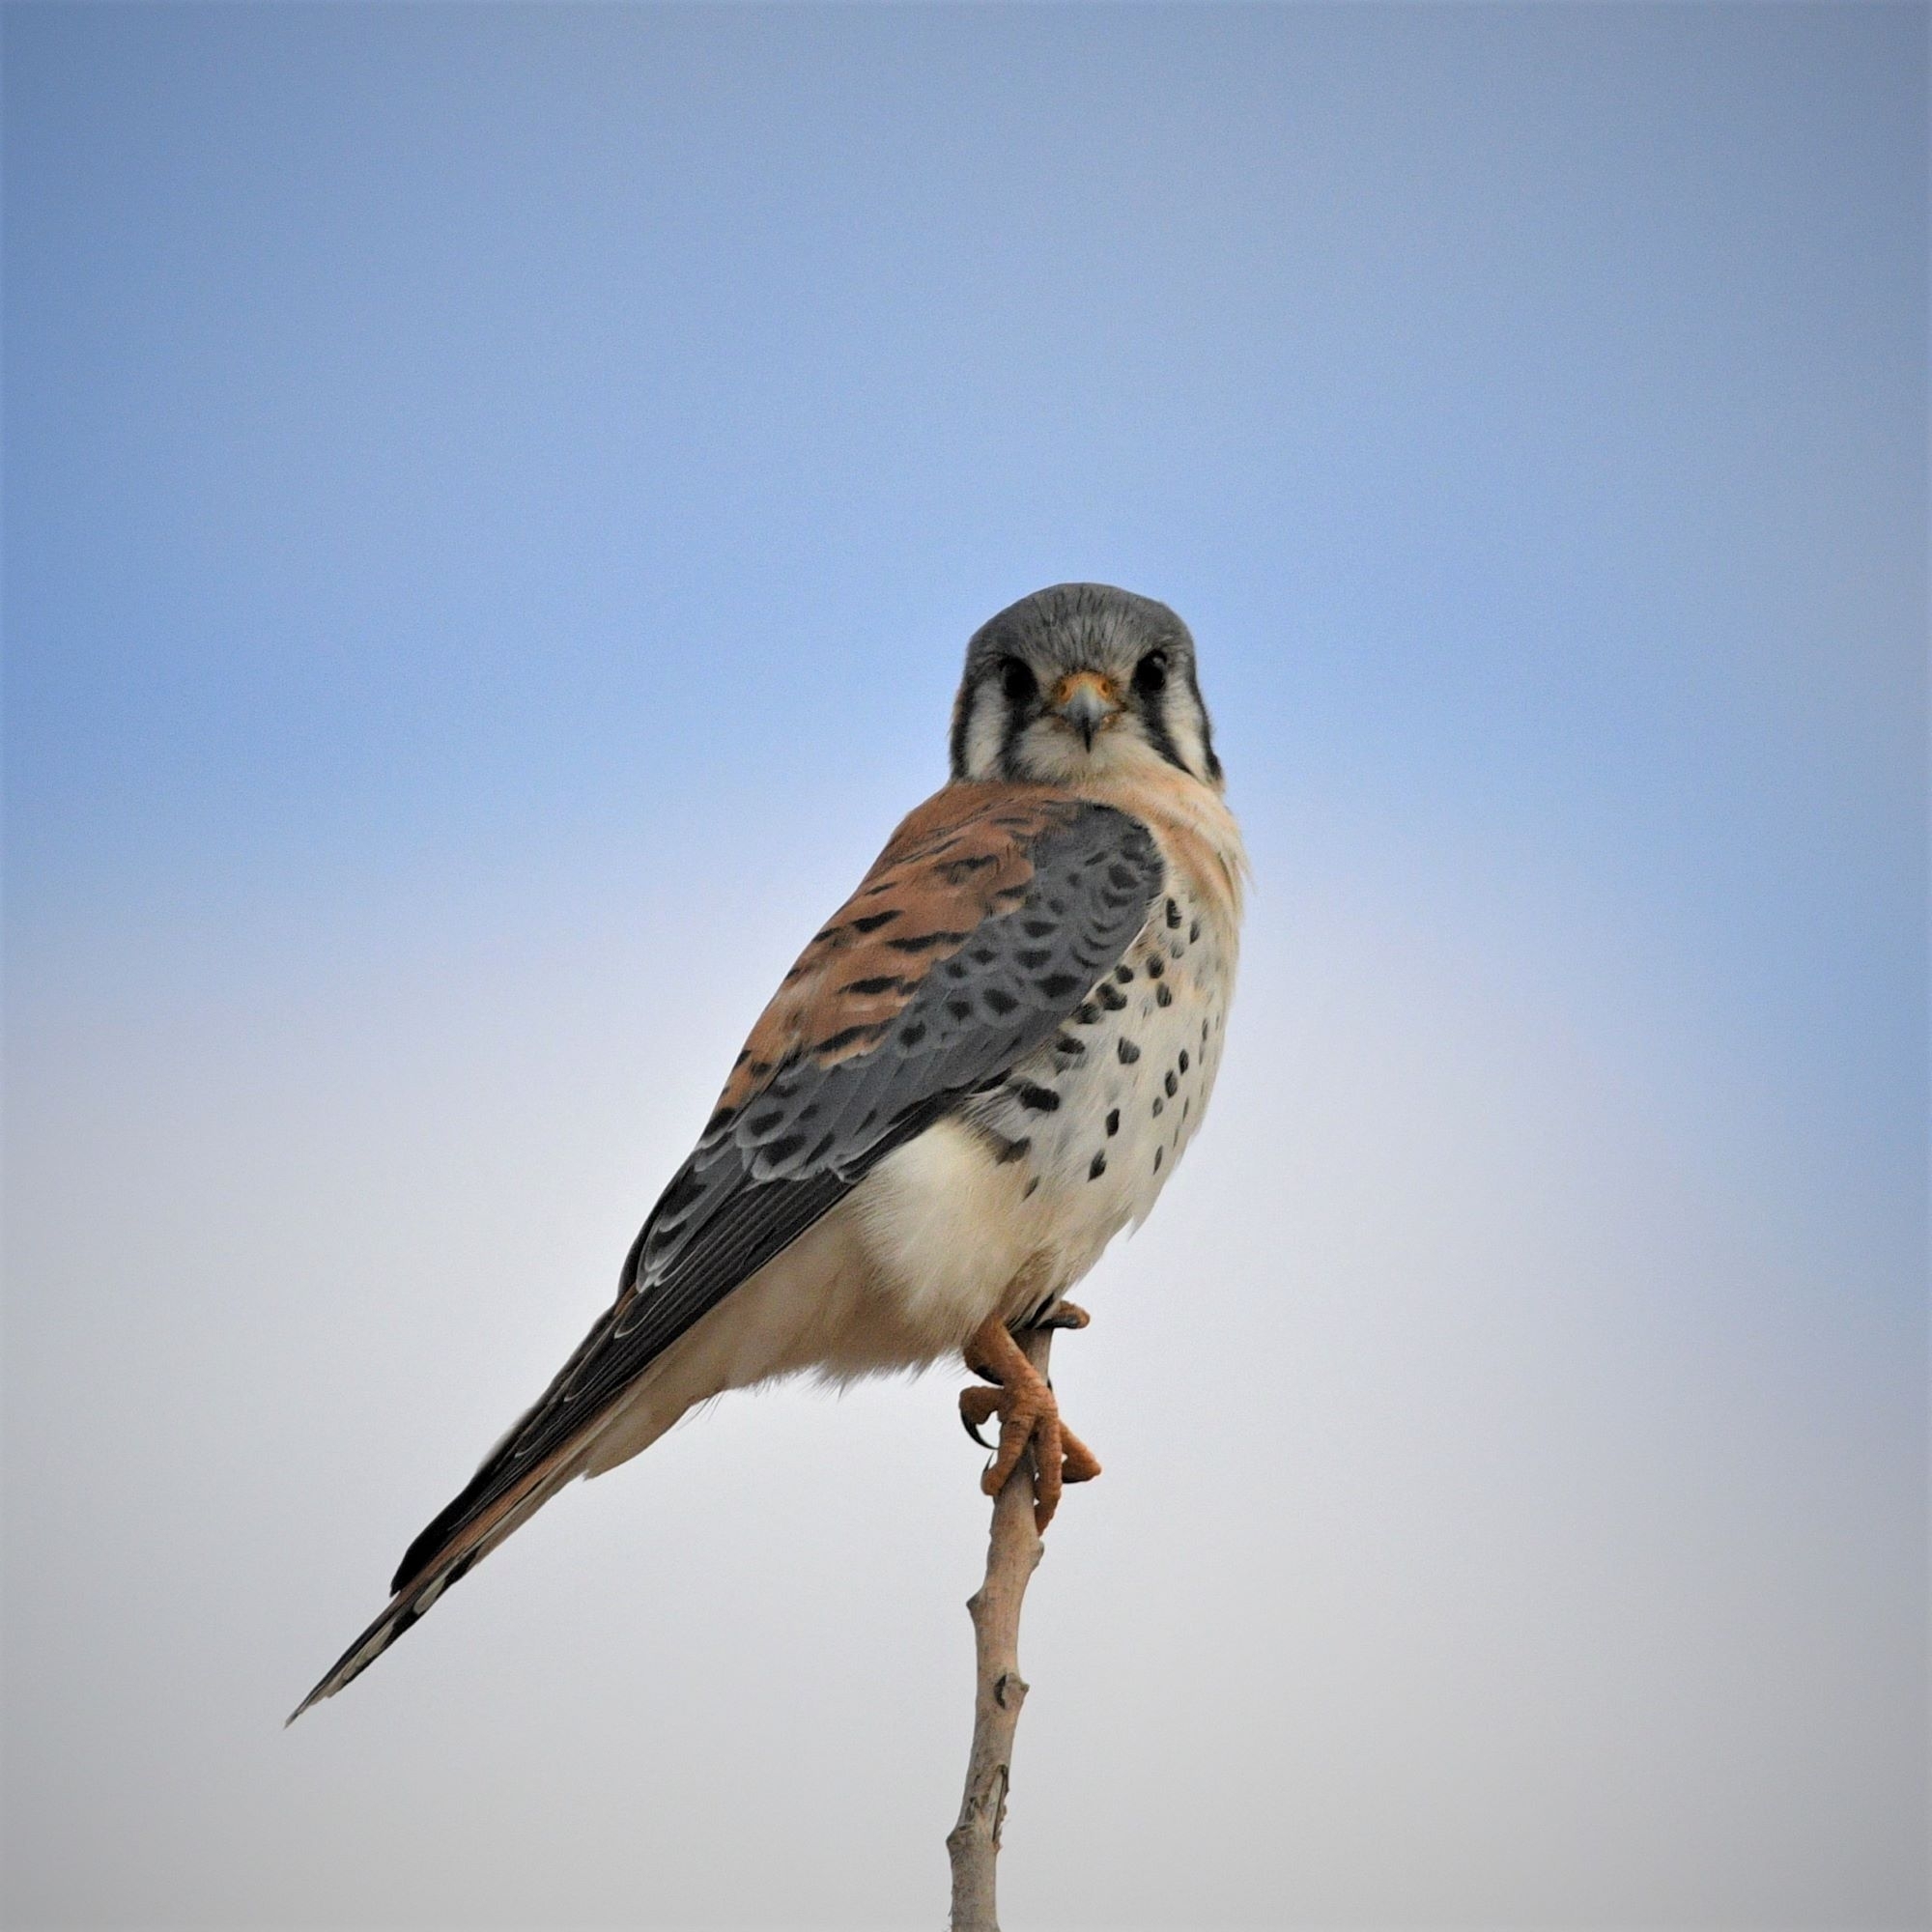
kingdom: Animalia
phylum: Chordata
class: Aves
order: Falconiformes
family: Falconidae
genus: Falco
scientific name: Falco sparverius
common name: American kestrel
